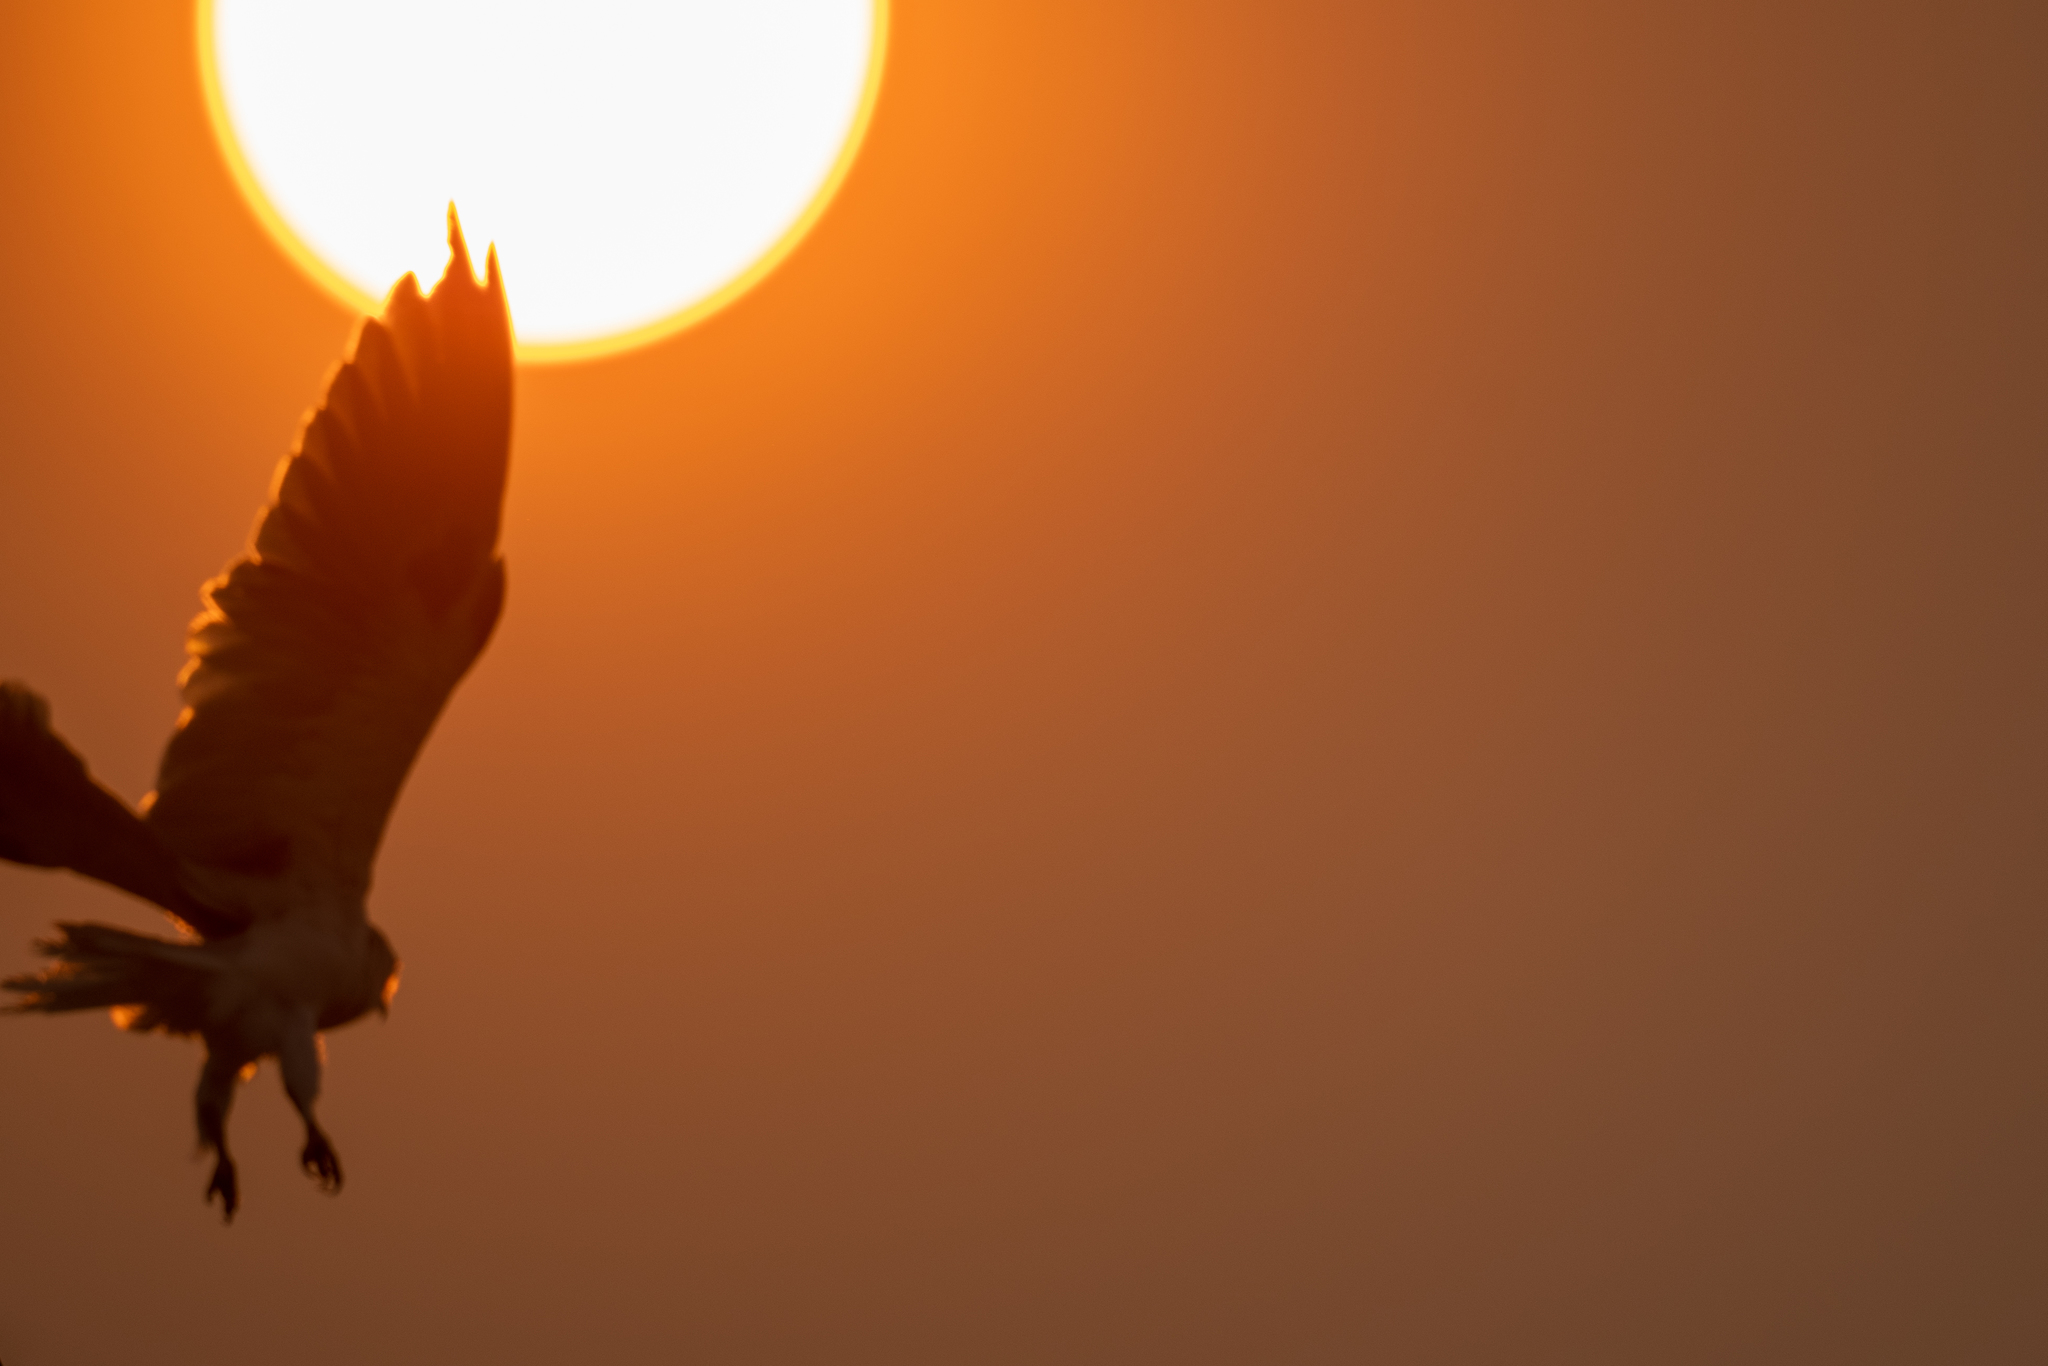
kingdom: Animalia
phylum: Chordata
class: Aves
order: Accipitriformes
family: Accipitridae
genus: Elanus
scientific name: Elanus leucurus
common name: White-tailed kite
